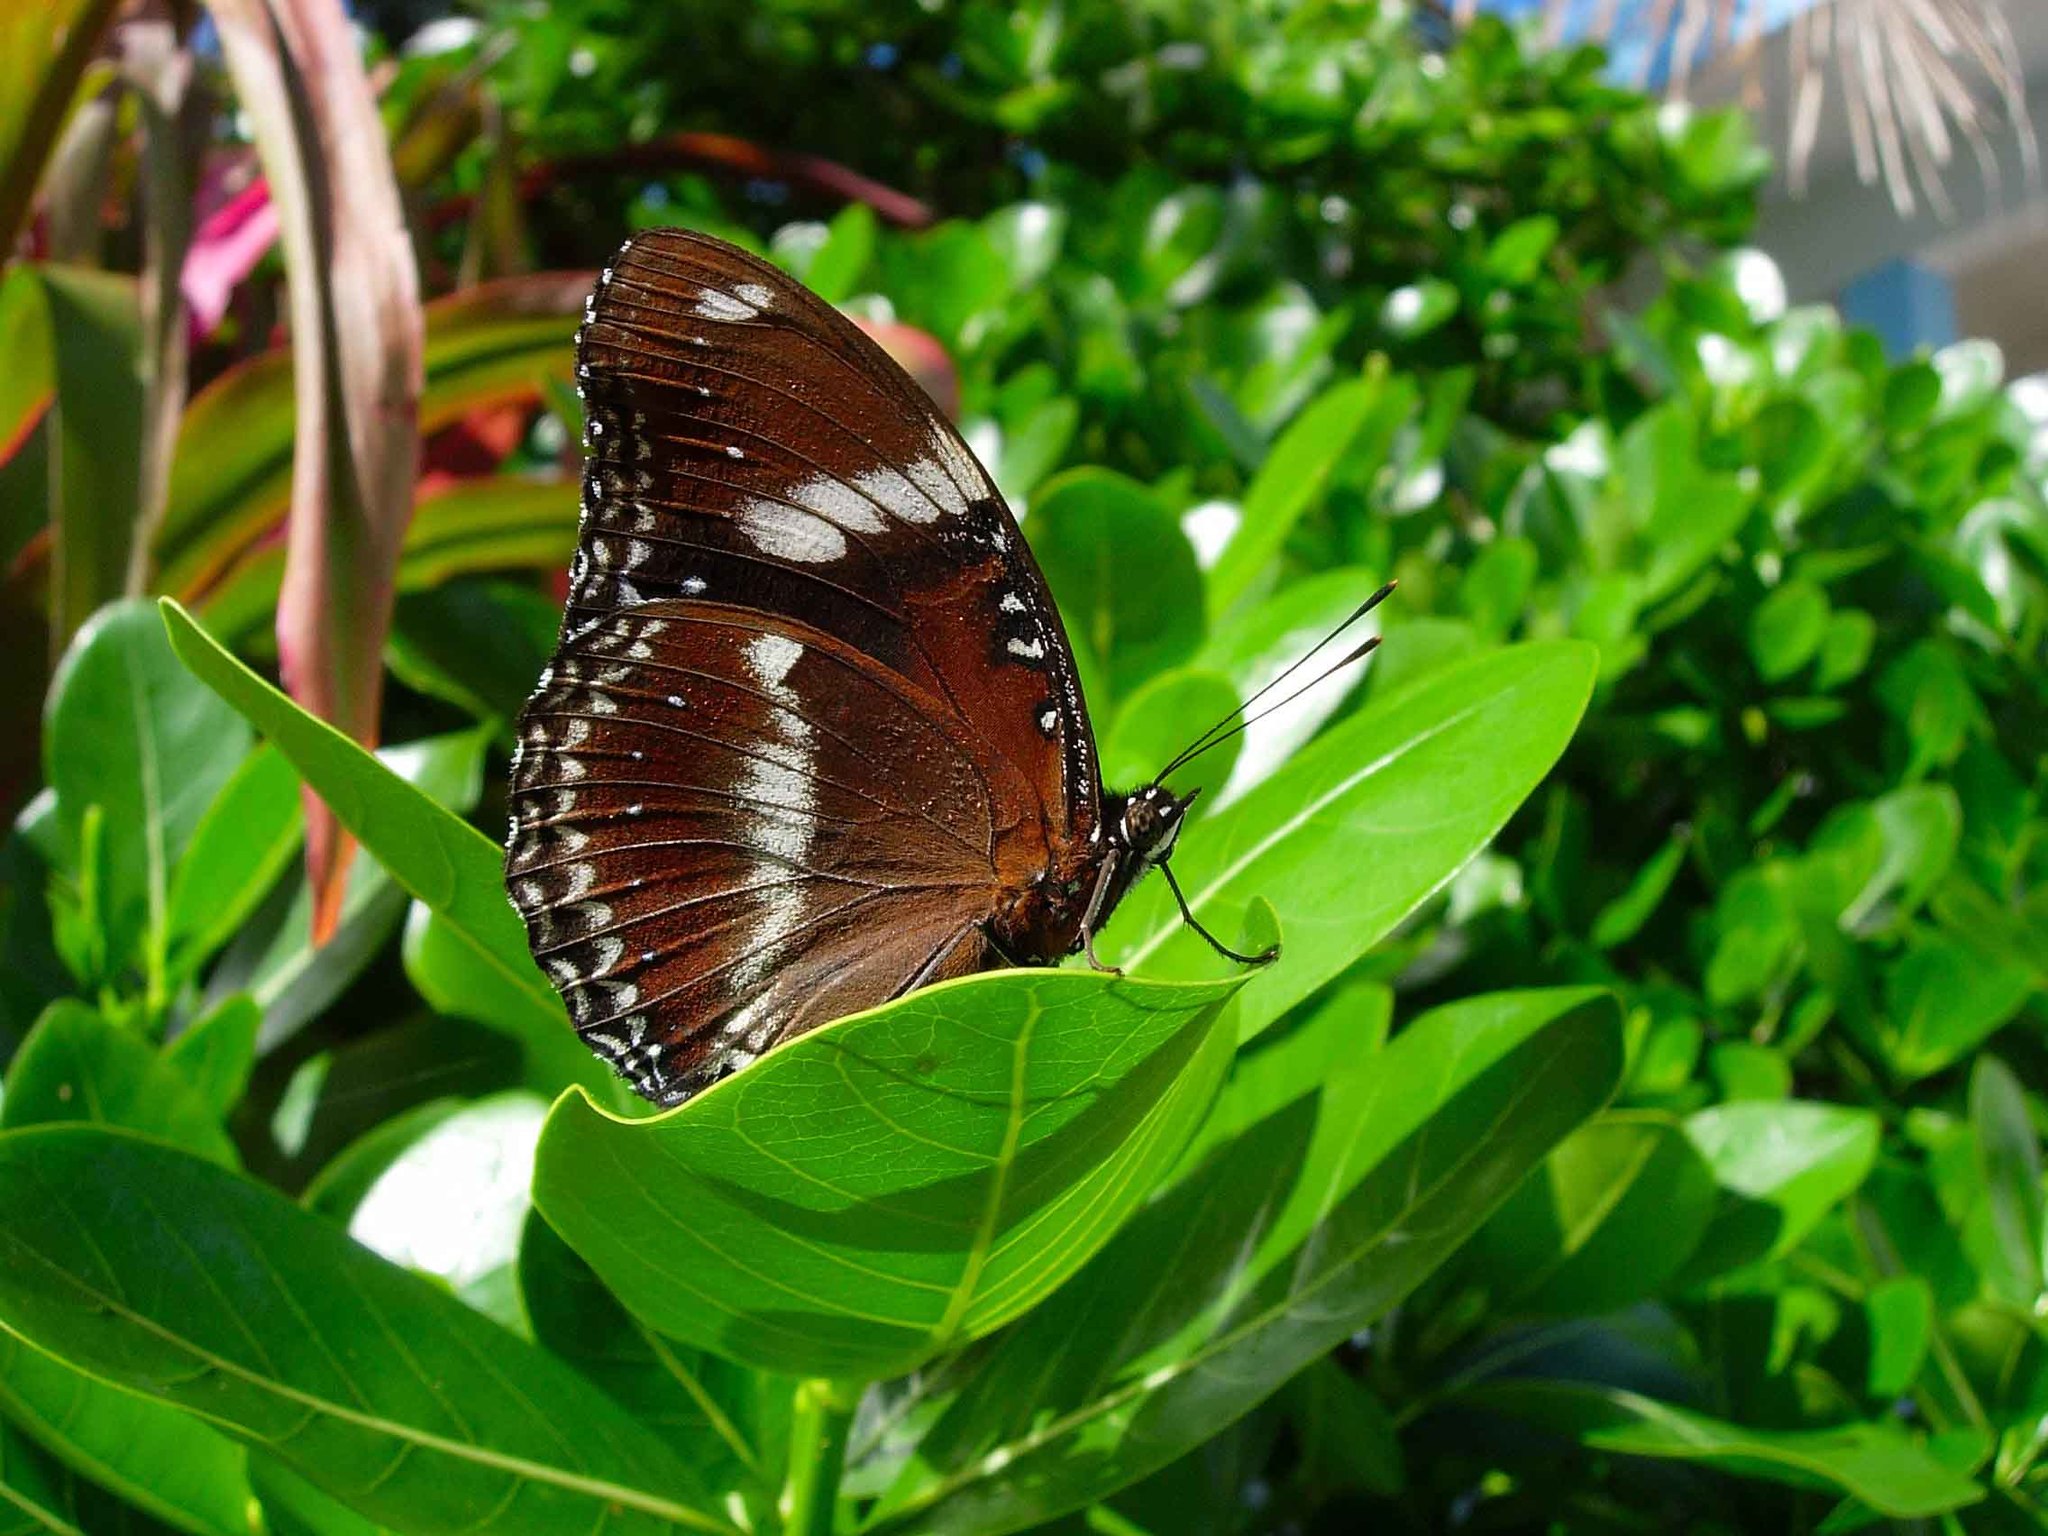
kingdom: Animalia
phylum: Arthropoda
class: Insecta
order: Lepidoptera
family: Nymphalidae
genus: Hypolimnas
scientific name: Hypolimnas bolina
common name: Great eggfly
